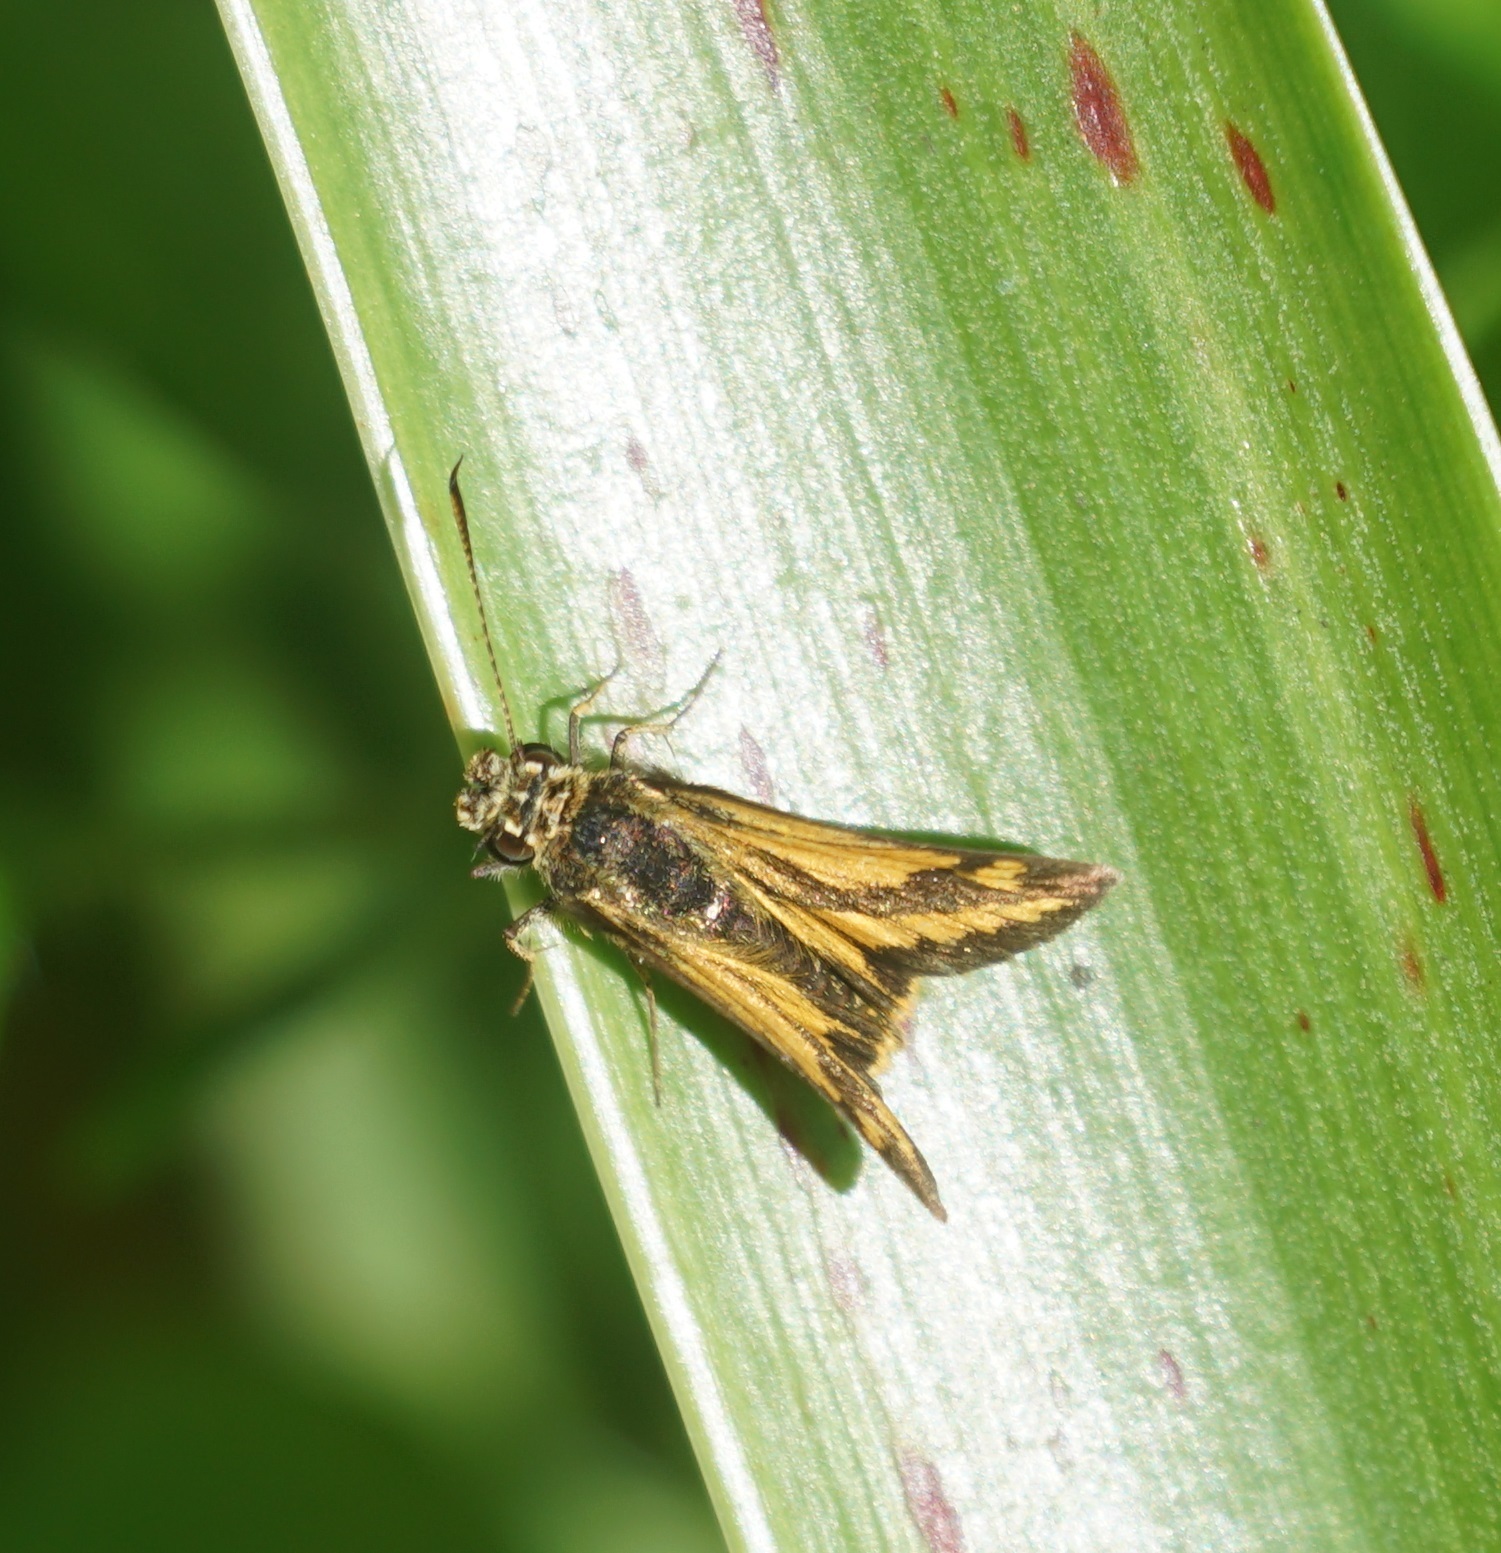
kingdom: Animalia
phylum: Arthropoda
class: Insecta
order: Lepidoptera
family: Hesperiidae
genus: Suniana
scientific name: Suniana sunias
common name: Wide-brand grass-dart
